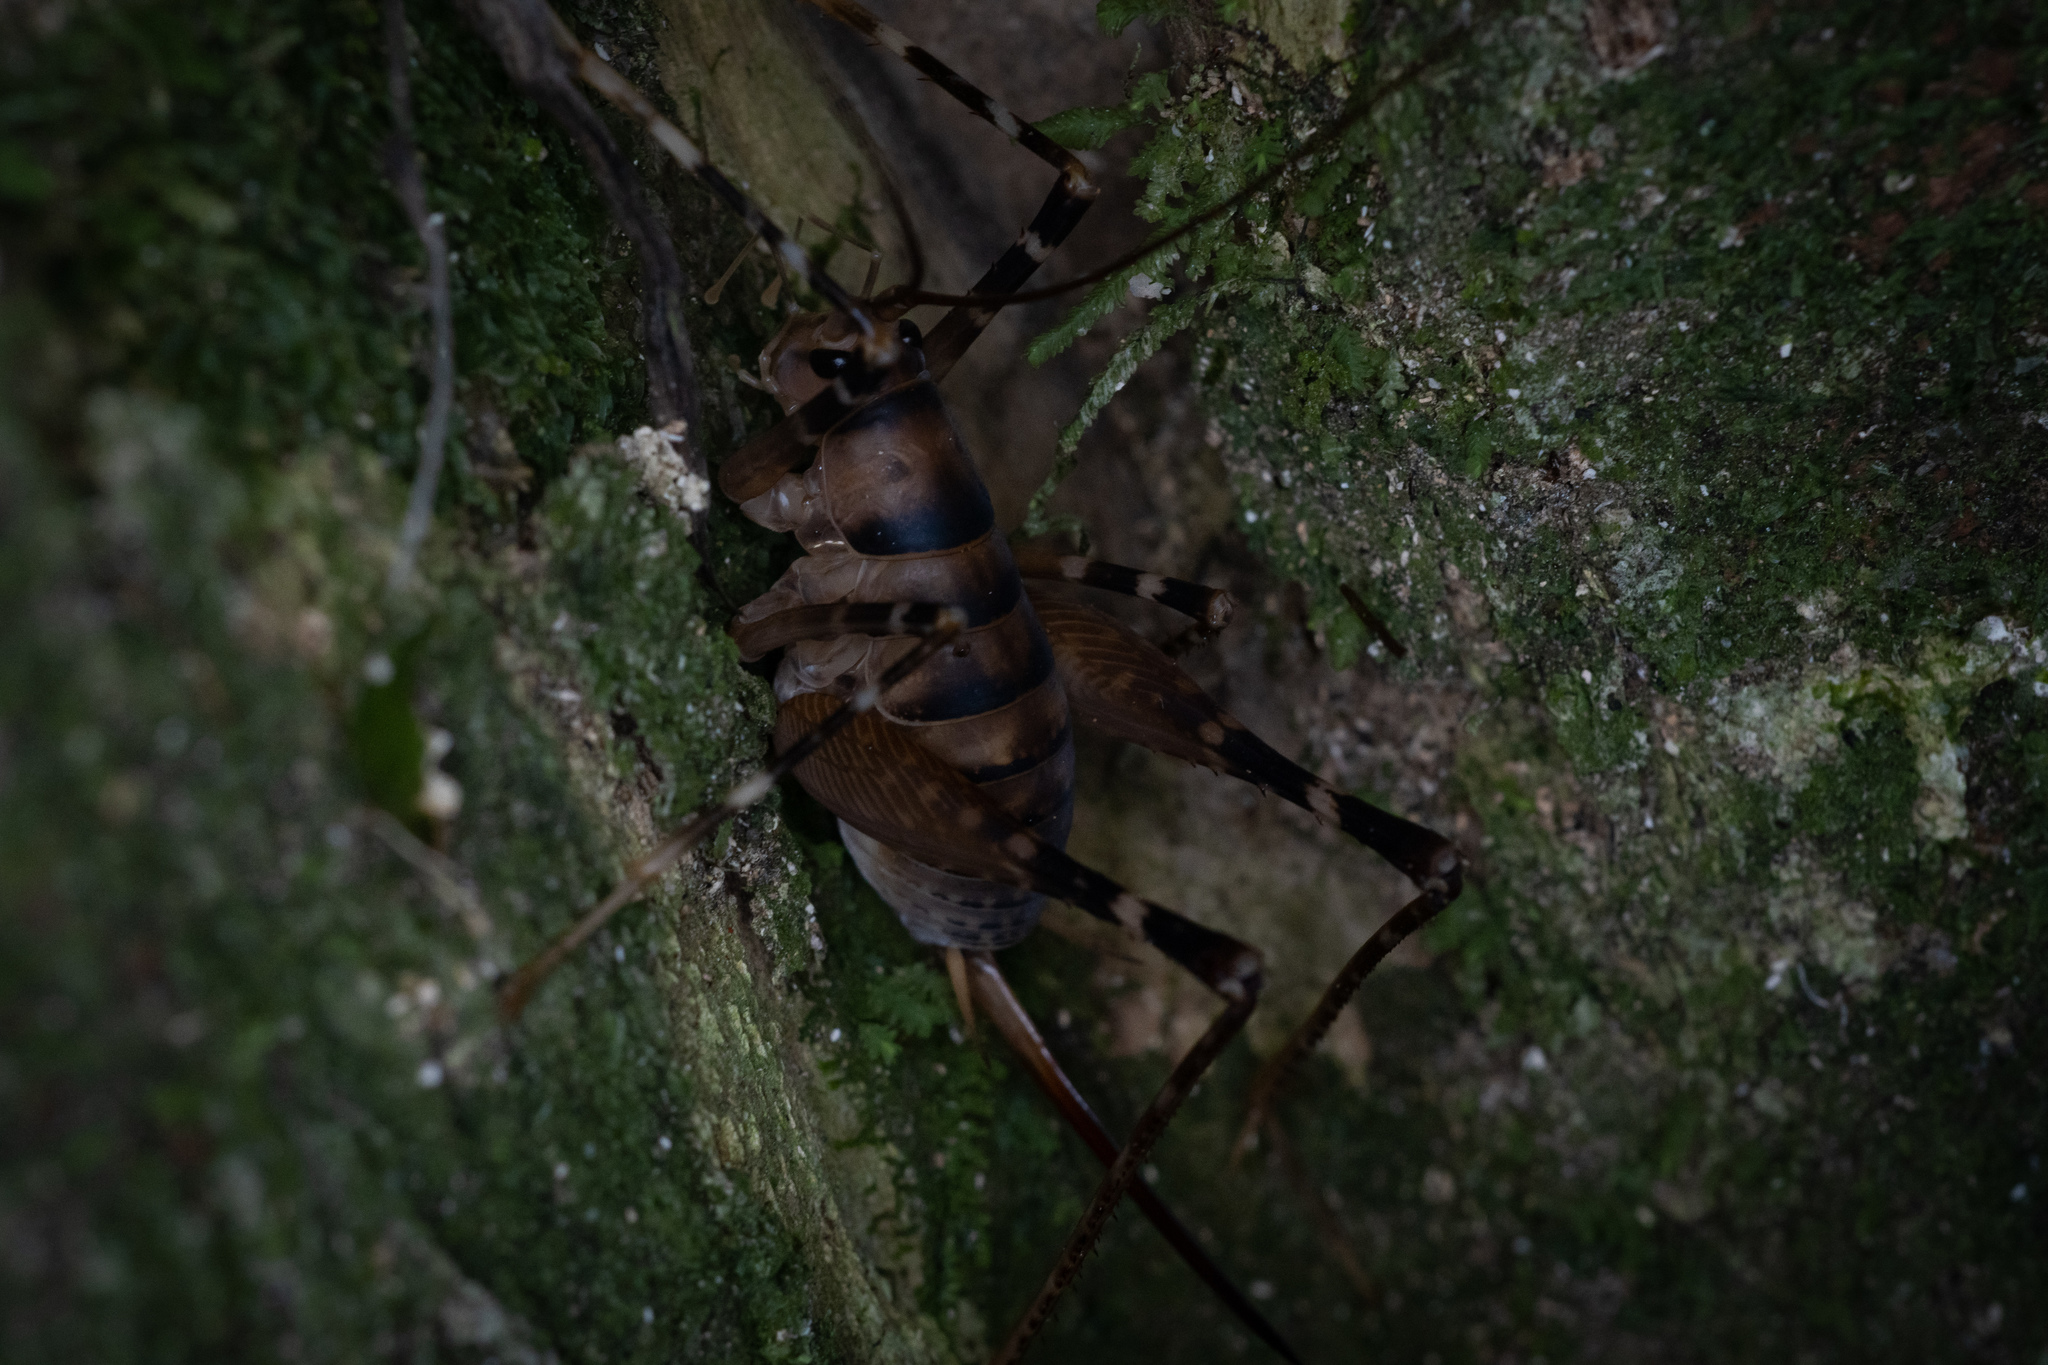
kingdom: Animalia
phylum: Arthropoda
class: Insecta
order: Orthoptera
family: Rhaphidophoridae
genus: Pachyrhamma
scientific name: Pachyrhamma edwardsii
